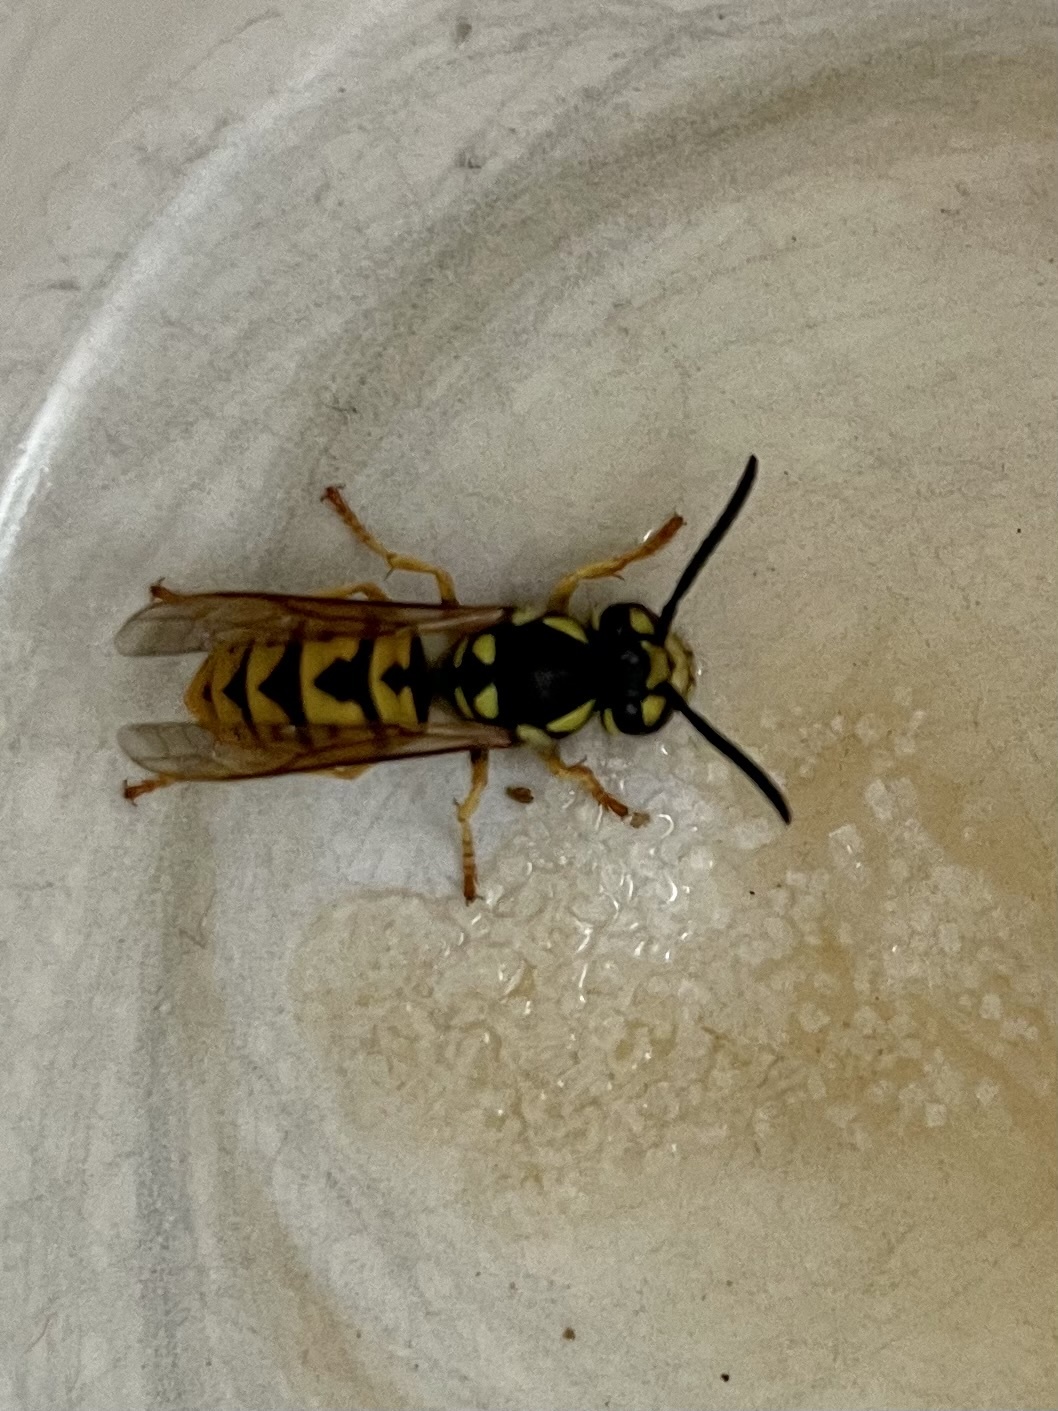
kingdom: Animalia
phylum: Arthropoda
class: Insecta
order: Hymenoptera
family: Vespidae
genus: Vespula
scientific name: Vespula germanica
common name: German wasp
